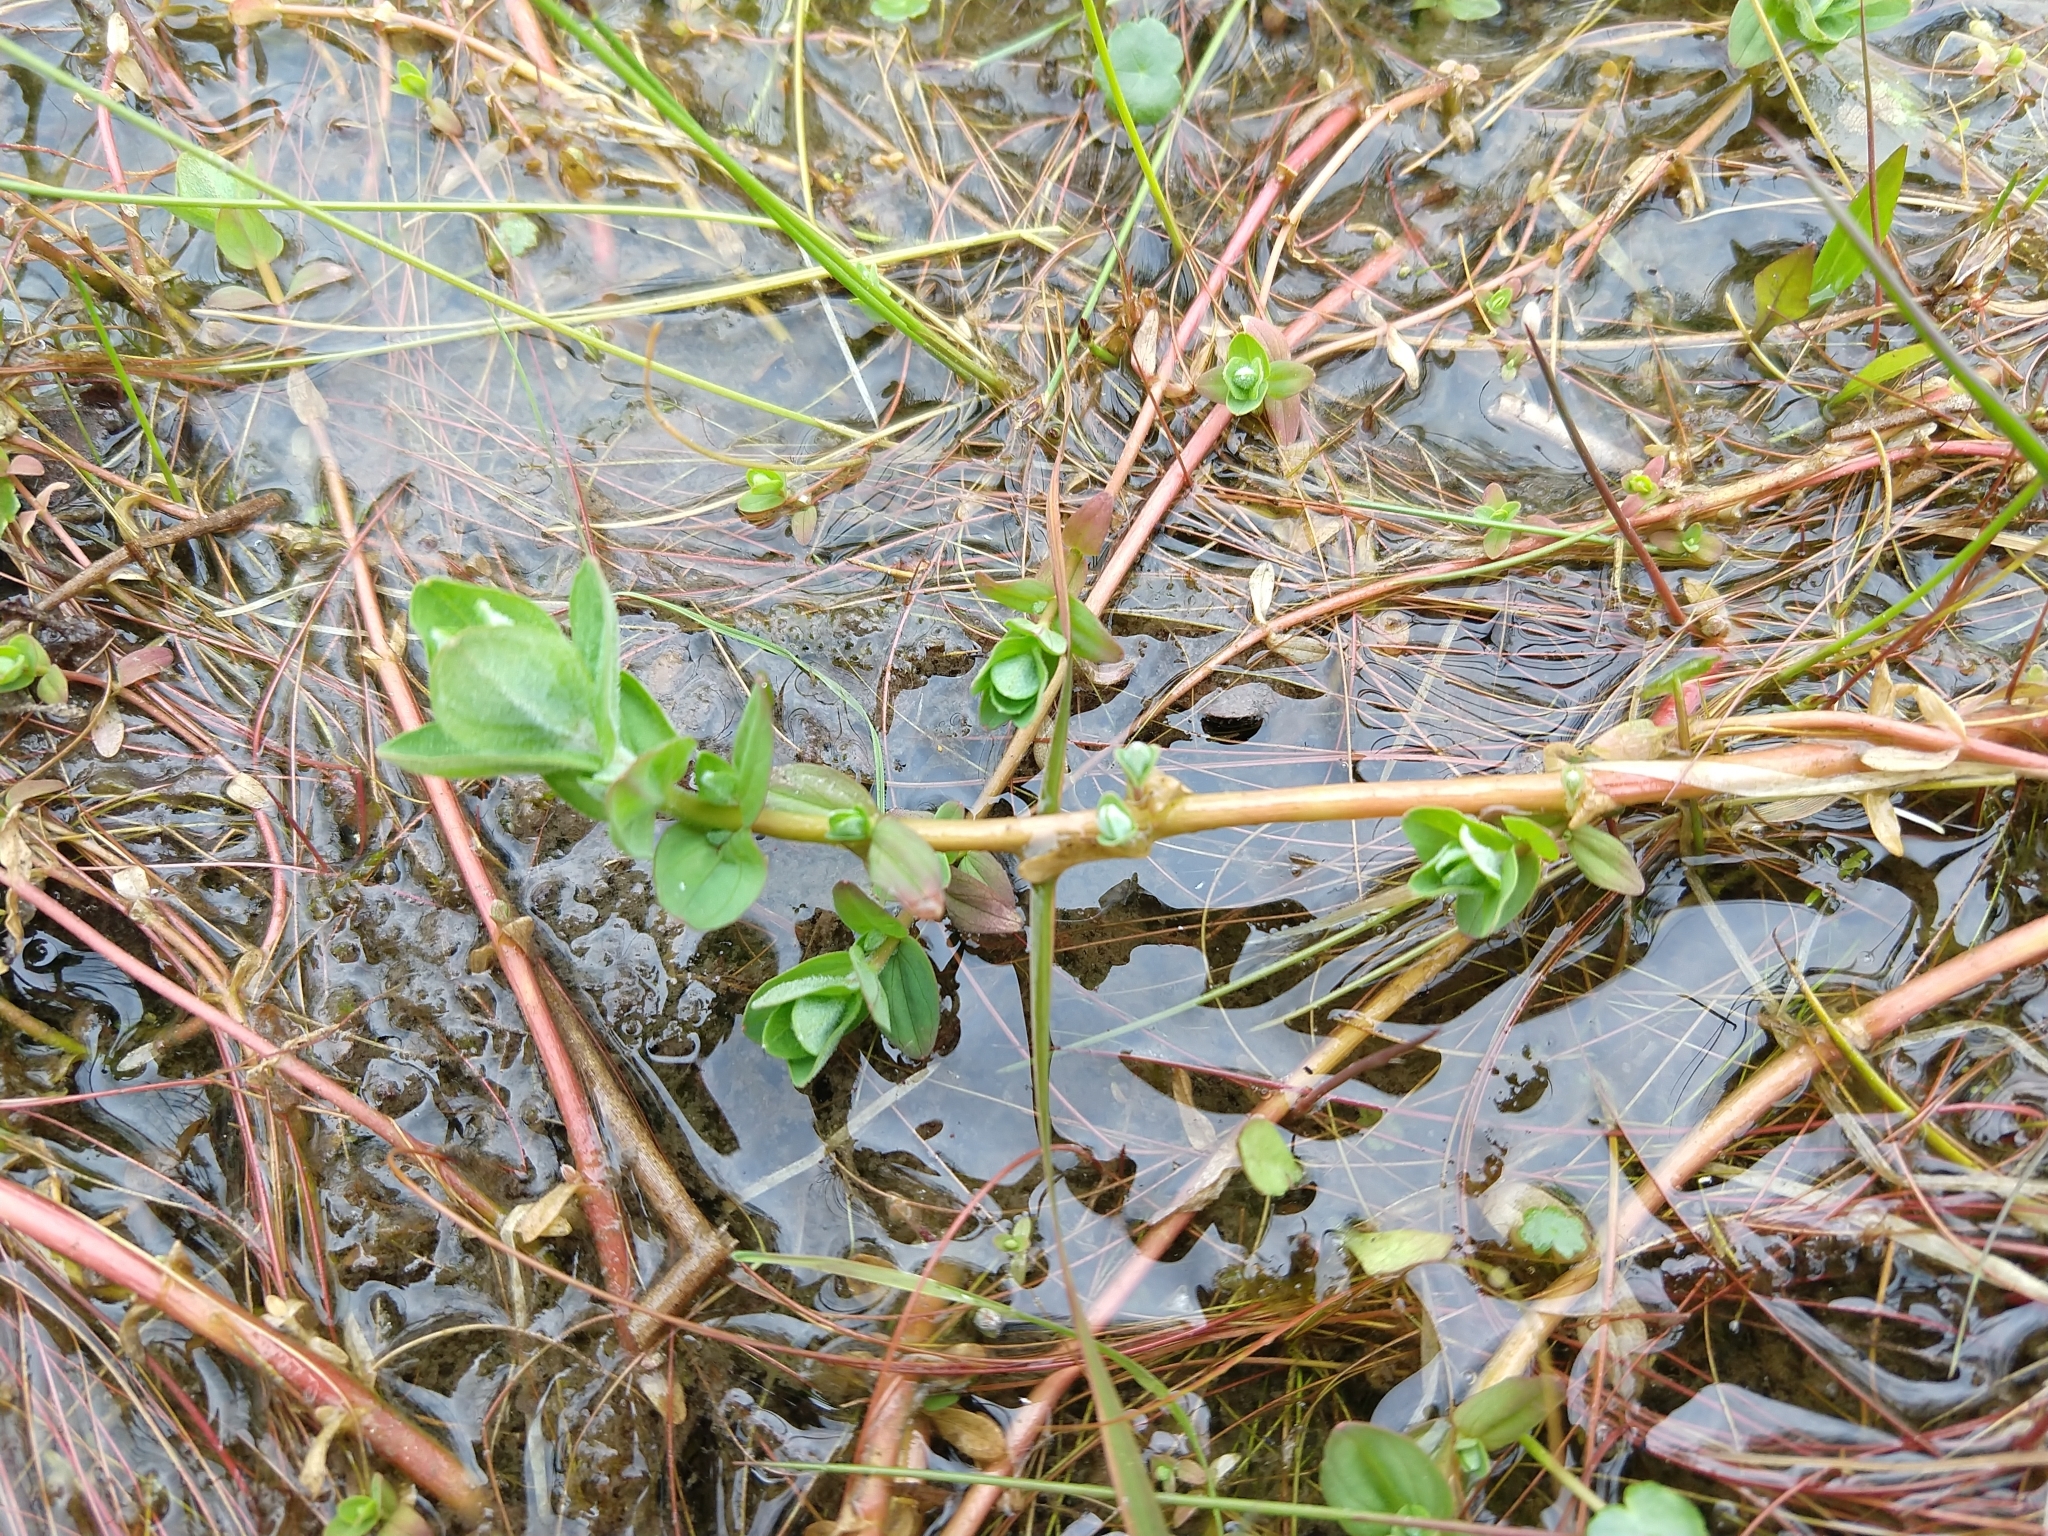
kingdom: Plantae
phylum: Tracheophyta
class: Magnoliopsida
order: Malpighiales
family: Hypericaceae
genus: Hypericum
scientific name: Hypericum elodes
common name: Marsh st. john's-wort
